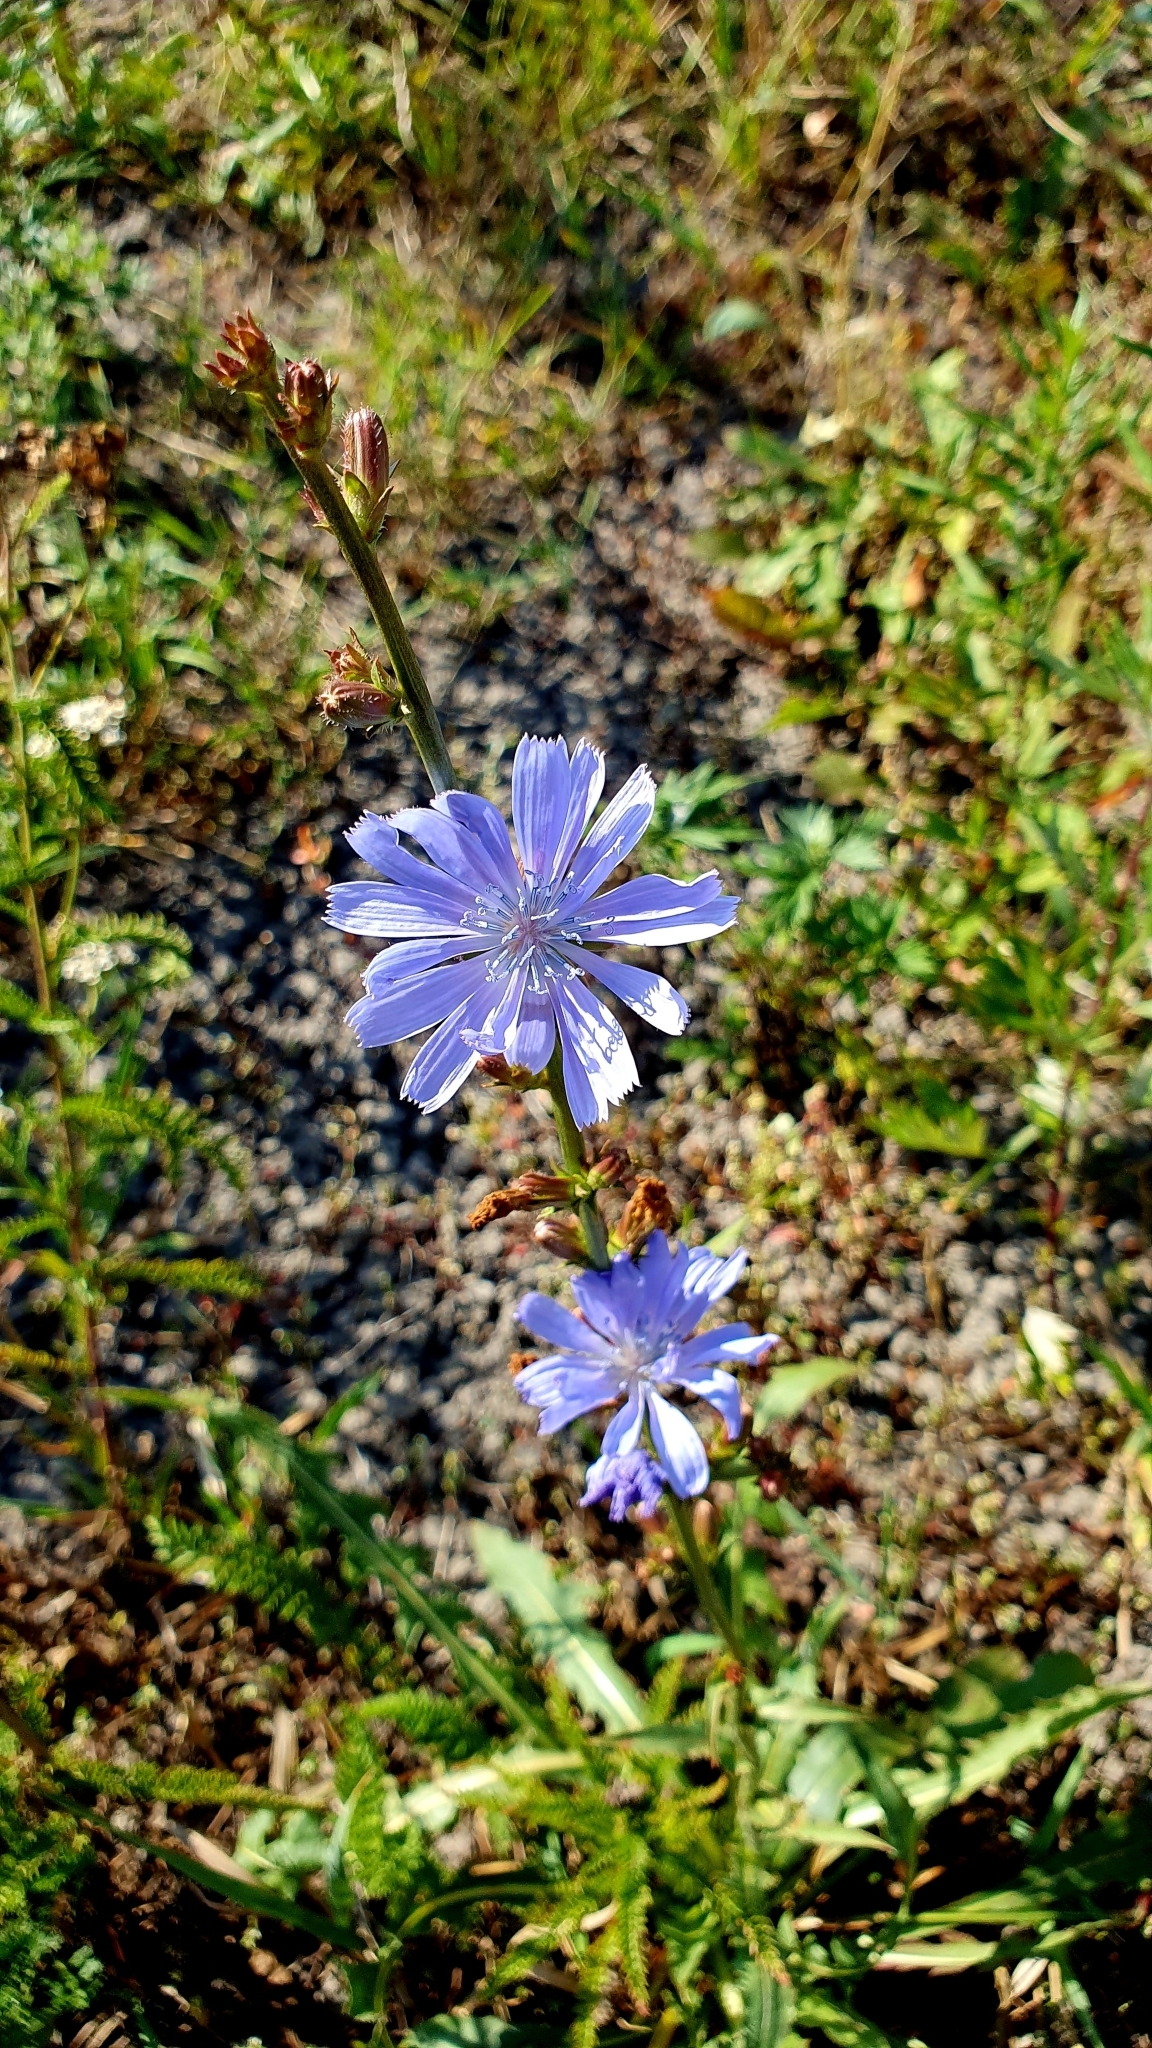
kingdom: Plantae
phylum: Tracheophyta
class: Magnoliopsida
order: Asterales
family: Asteraceae
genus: Cichorium
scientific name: Cichorium intybus
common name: Chicory
